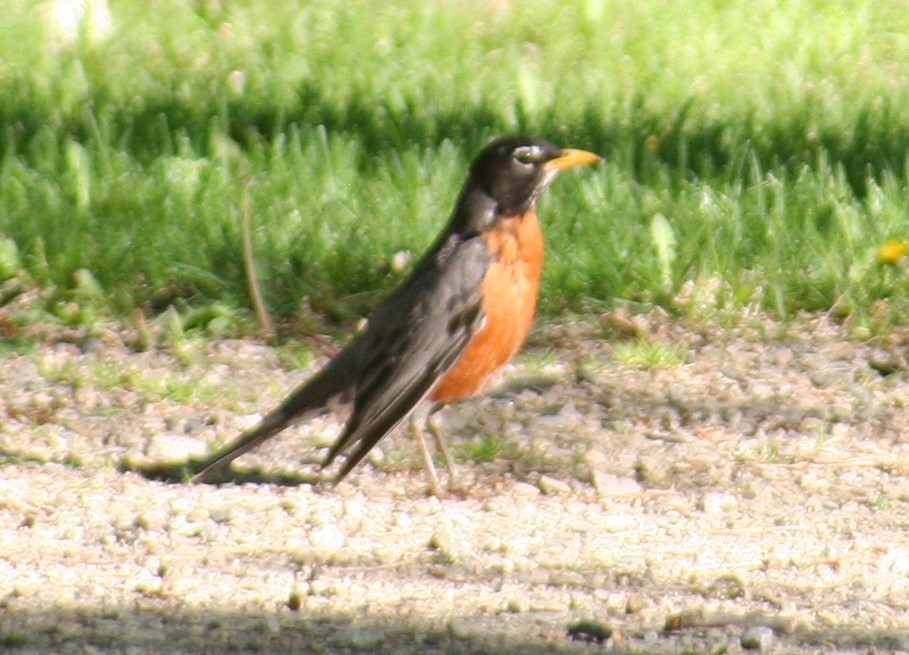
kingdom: Animalia
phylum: Chordata
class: Aves
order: Passeriformes
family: Turdidae
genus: Turdus
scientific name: Turdus migratorius
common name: American robin
